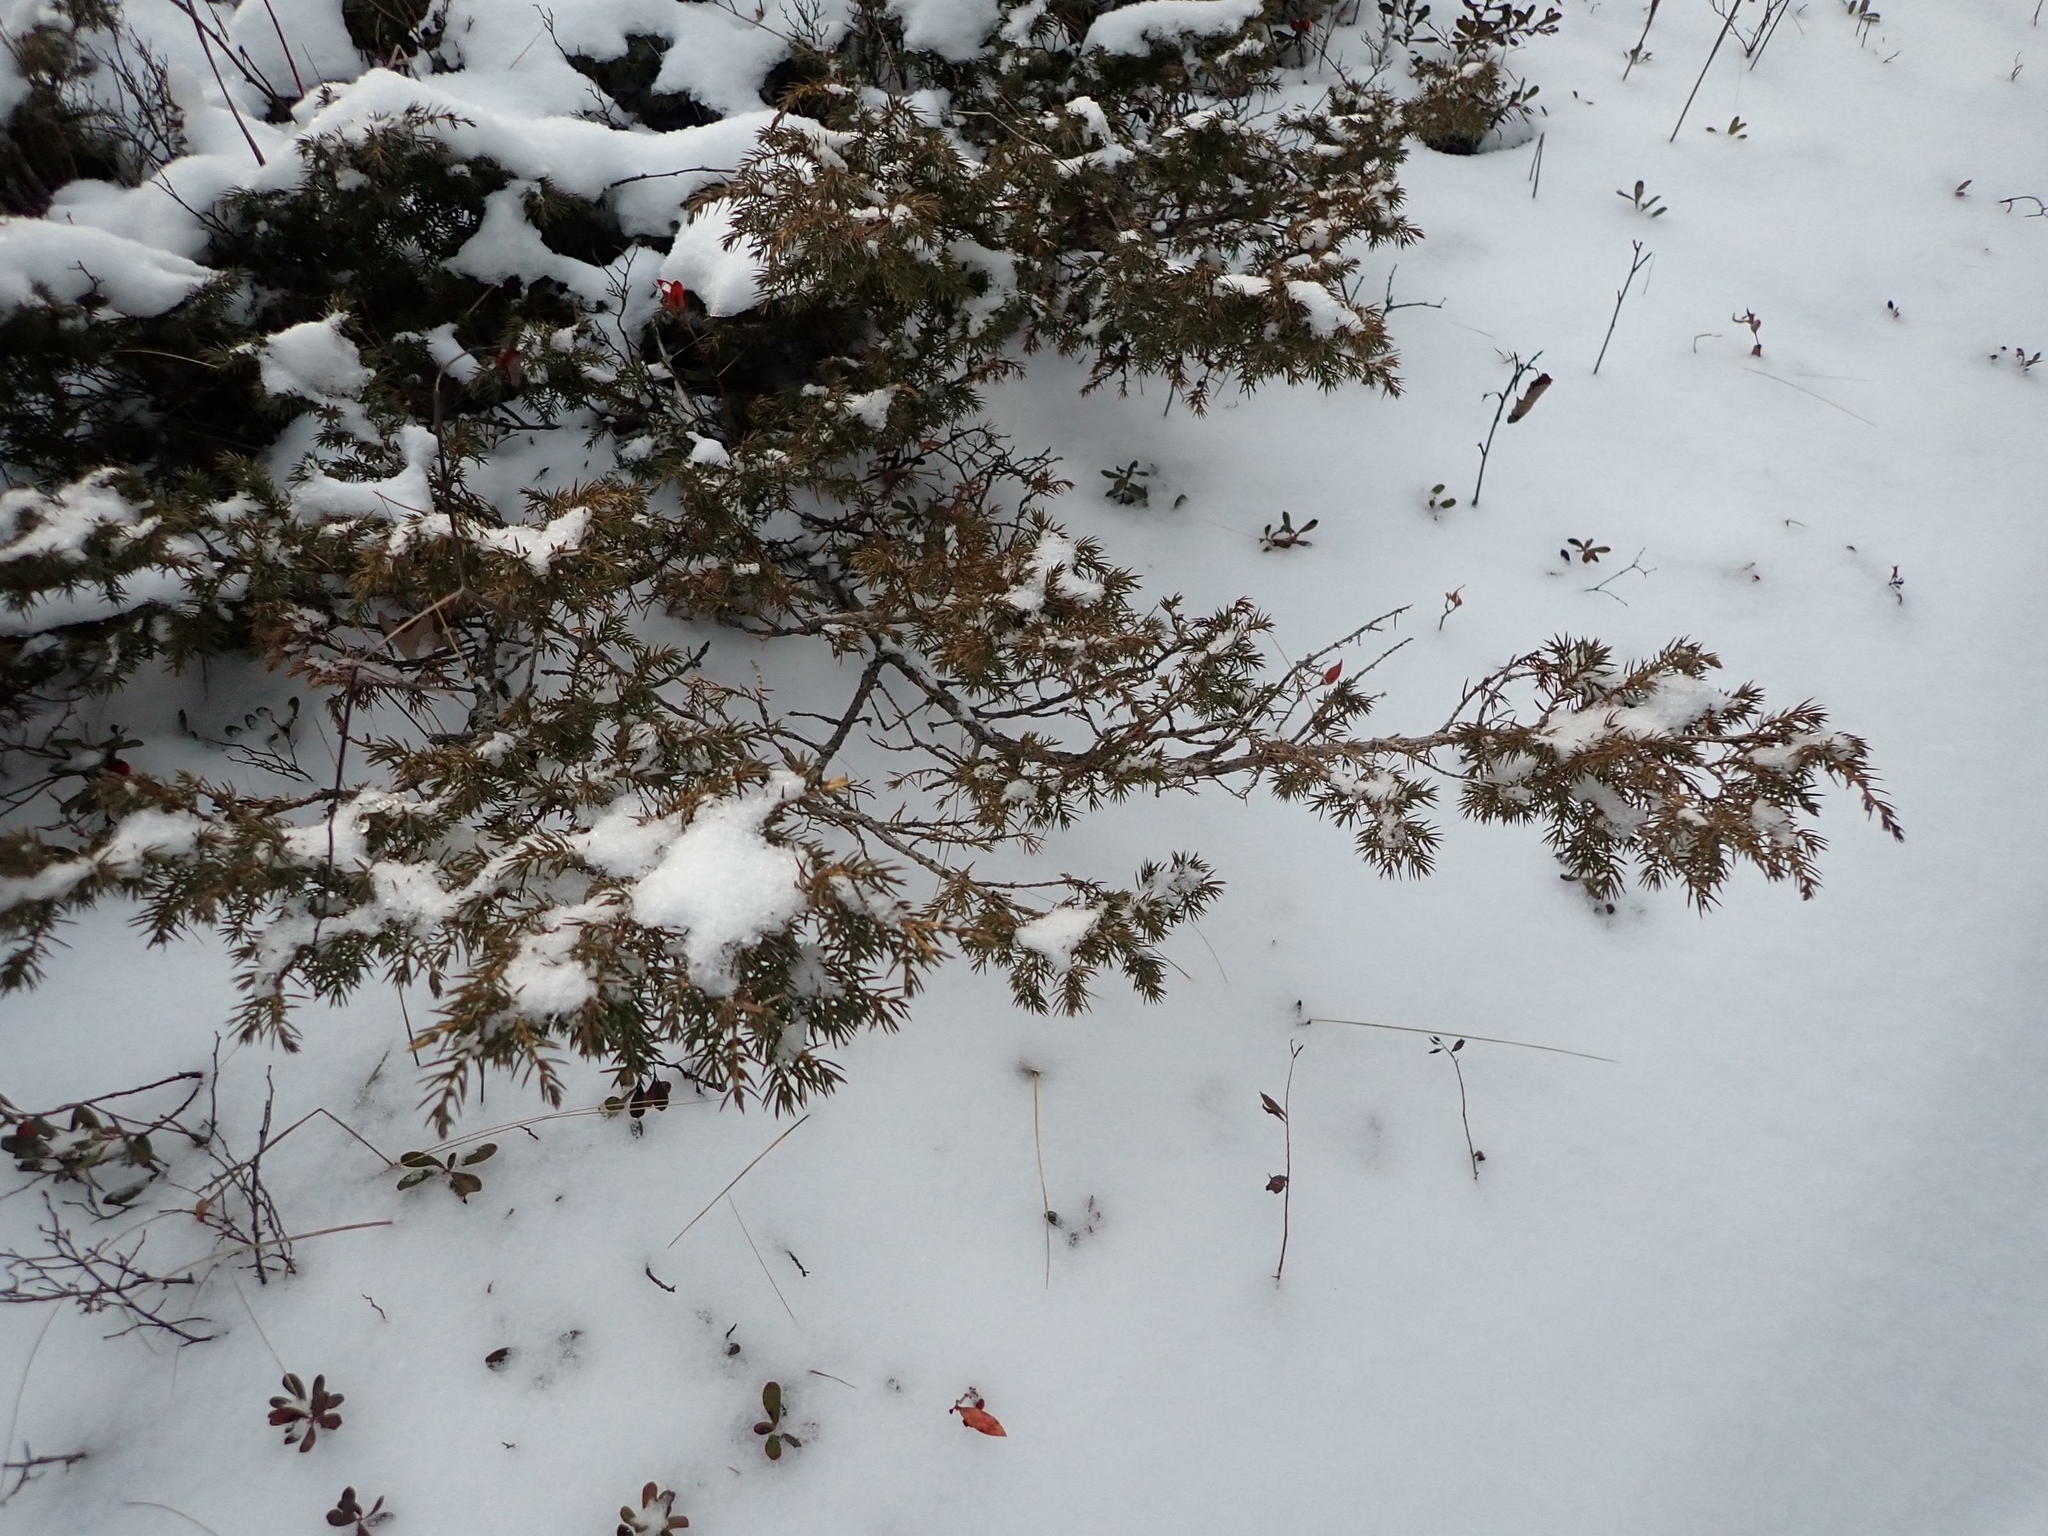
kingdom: Plantae
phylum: Tracheophyta
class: Pinopsida
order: Pinales
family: Cupressaceae
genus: Juniperus
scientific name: Juniperus communis
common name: Common juniper
